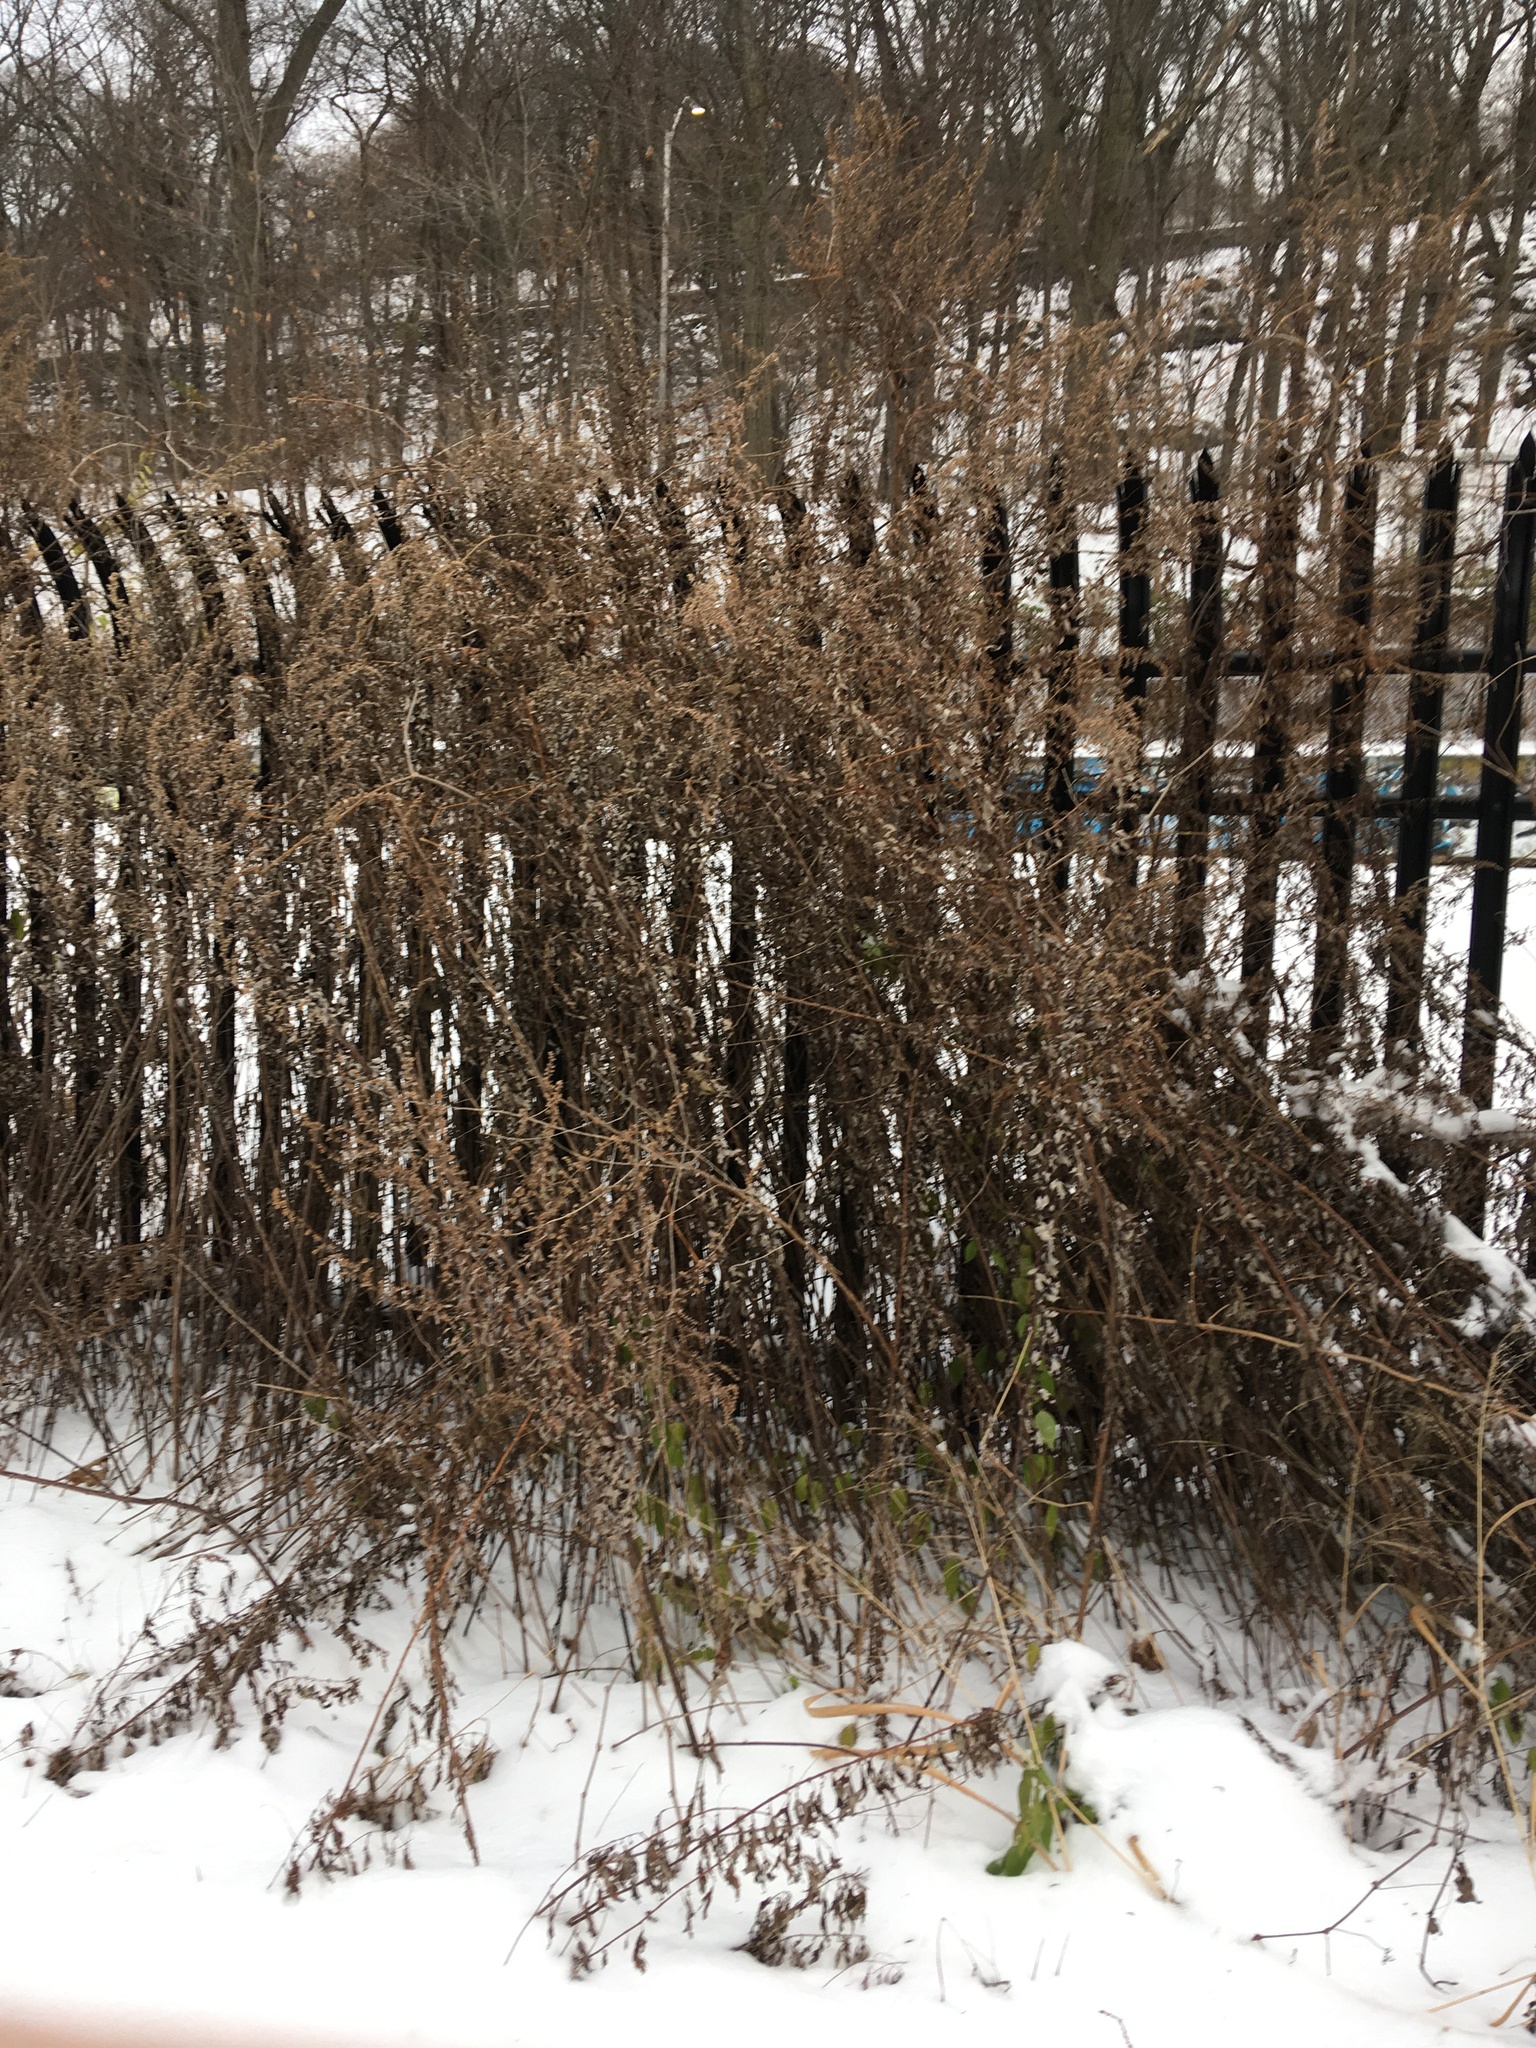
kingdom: Plantae
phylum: Tracheophyta
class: Magnoliopsida
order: Asterales
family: Asteraceae
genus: Artemisia
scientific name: Artemisia vulgaris
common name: Mugwort
